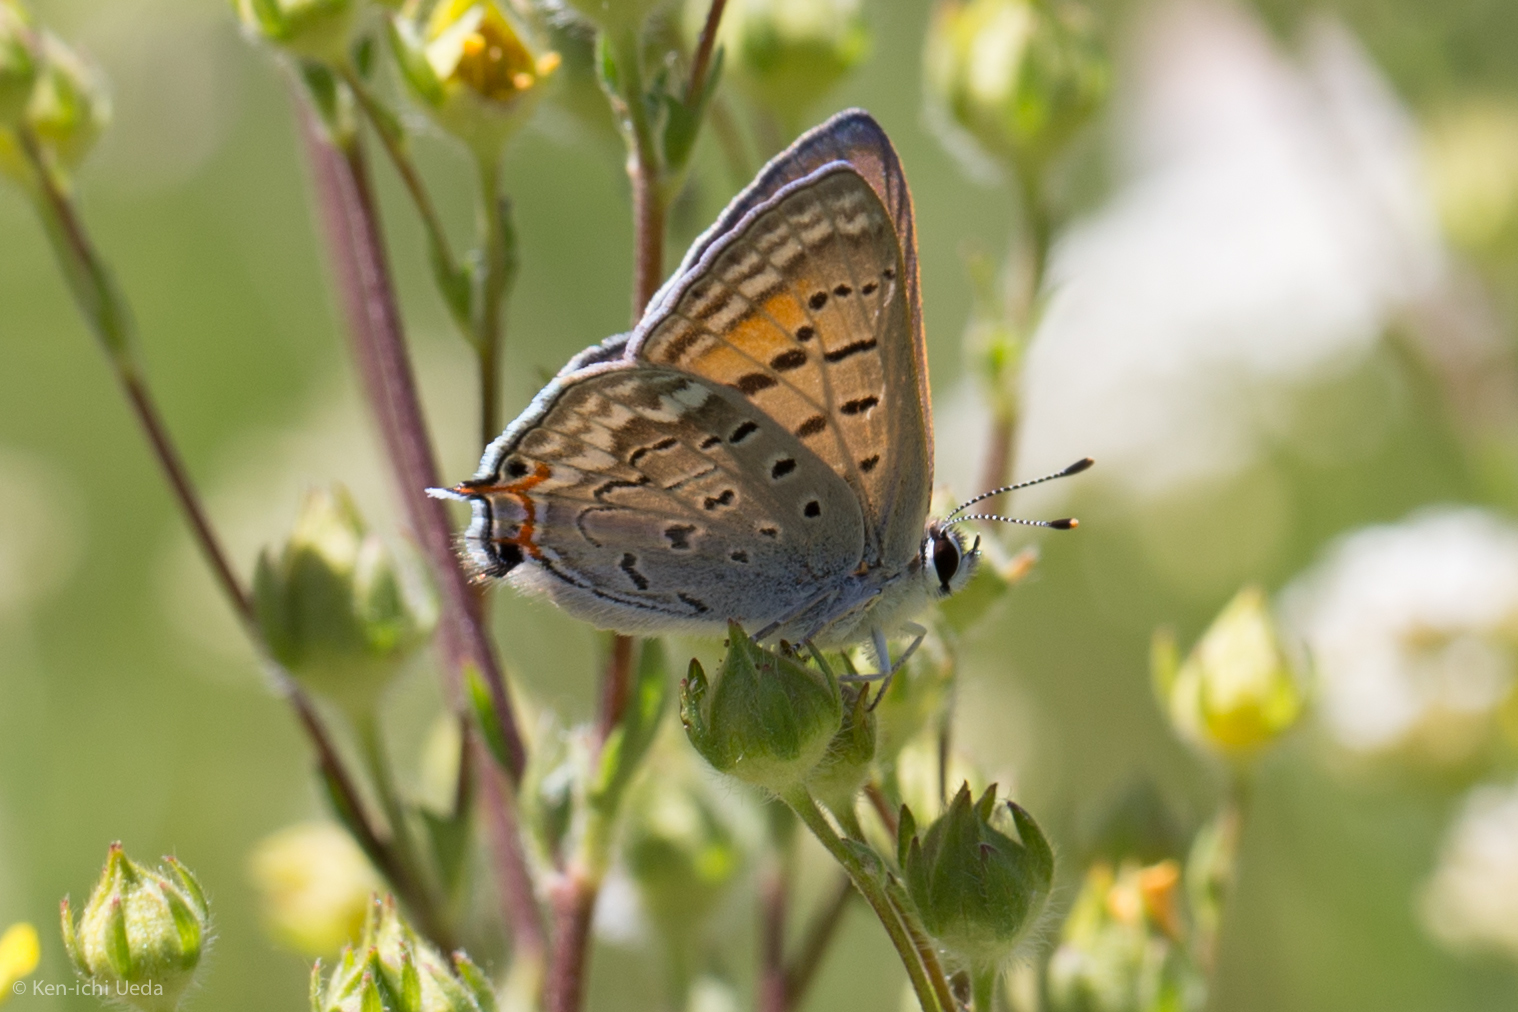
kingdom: Animalia
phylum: Arthropoda
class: Insecta
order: Lepidoptera
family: Lycaenidae
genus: Tharsalea
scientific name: Tharsalea arota
